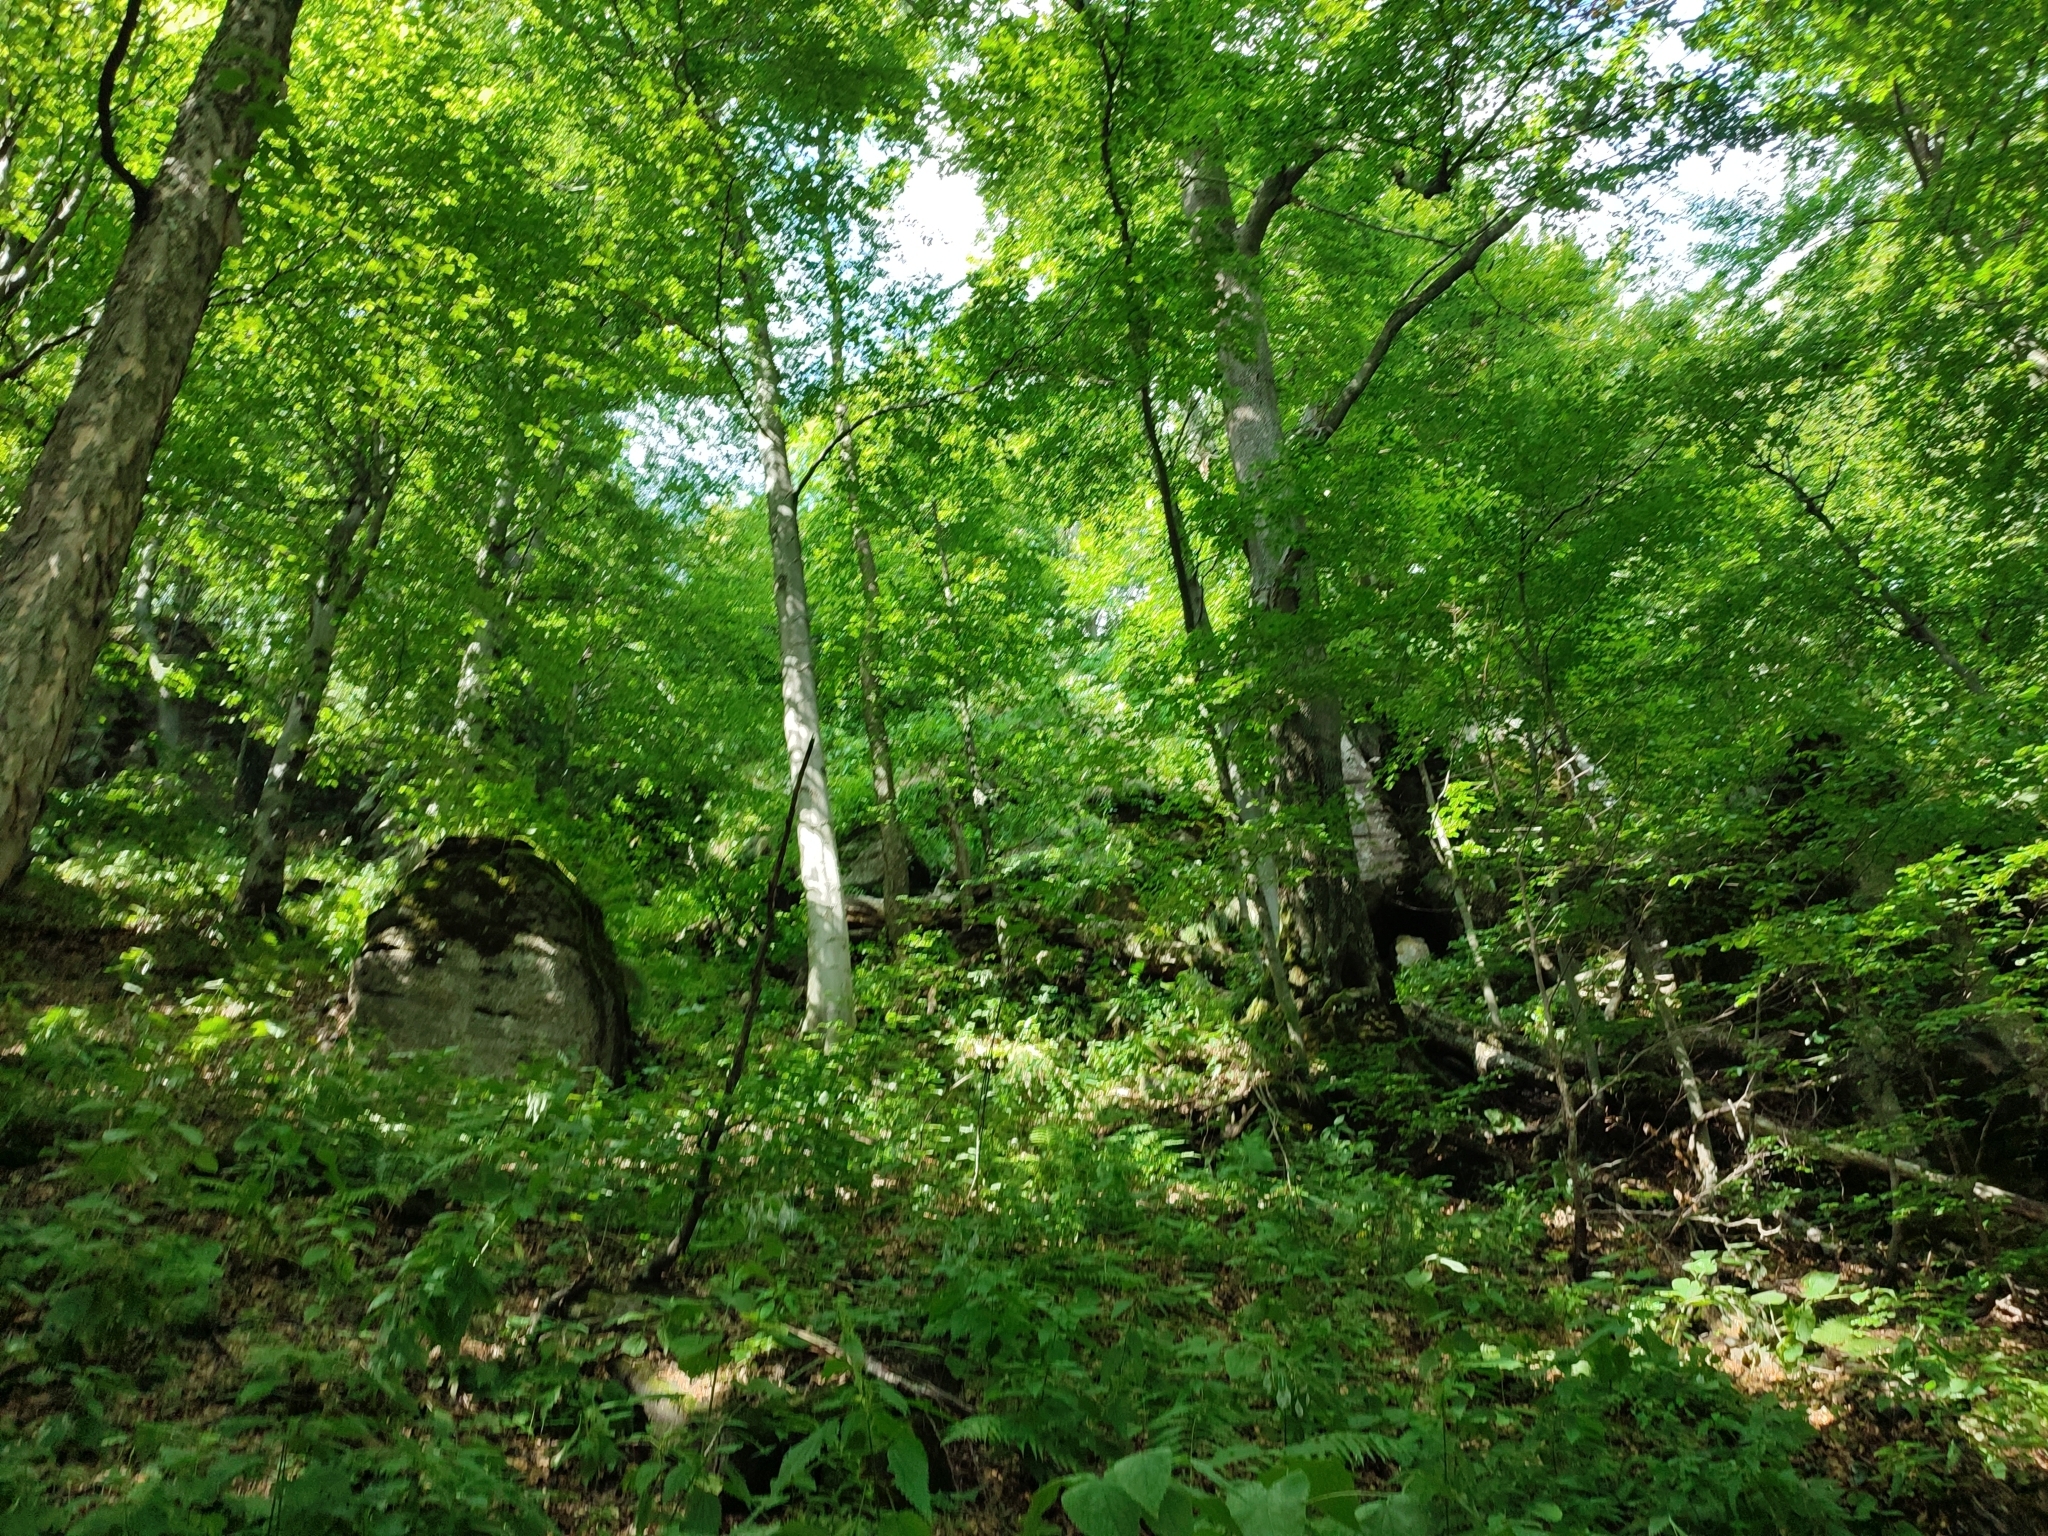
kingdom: Plantae
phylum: Tracheophyta
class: Magnoliopsida
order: Fagales
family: Fagaceae
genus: Fagus
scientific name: Fagus sylvatica
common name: Beech
